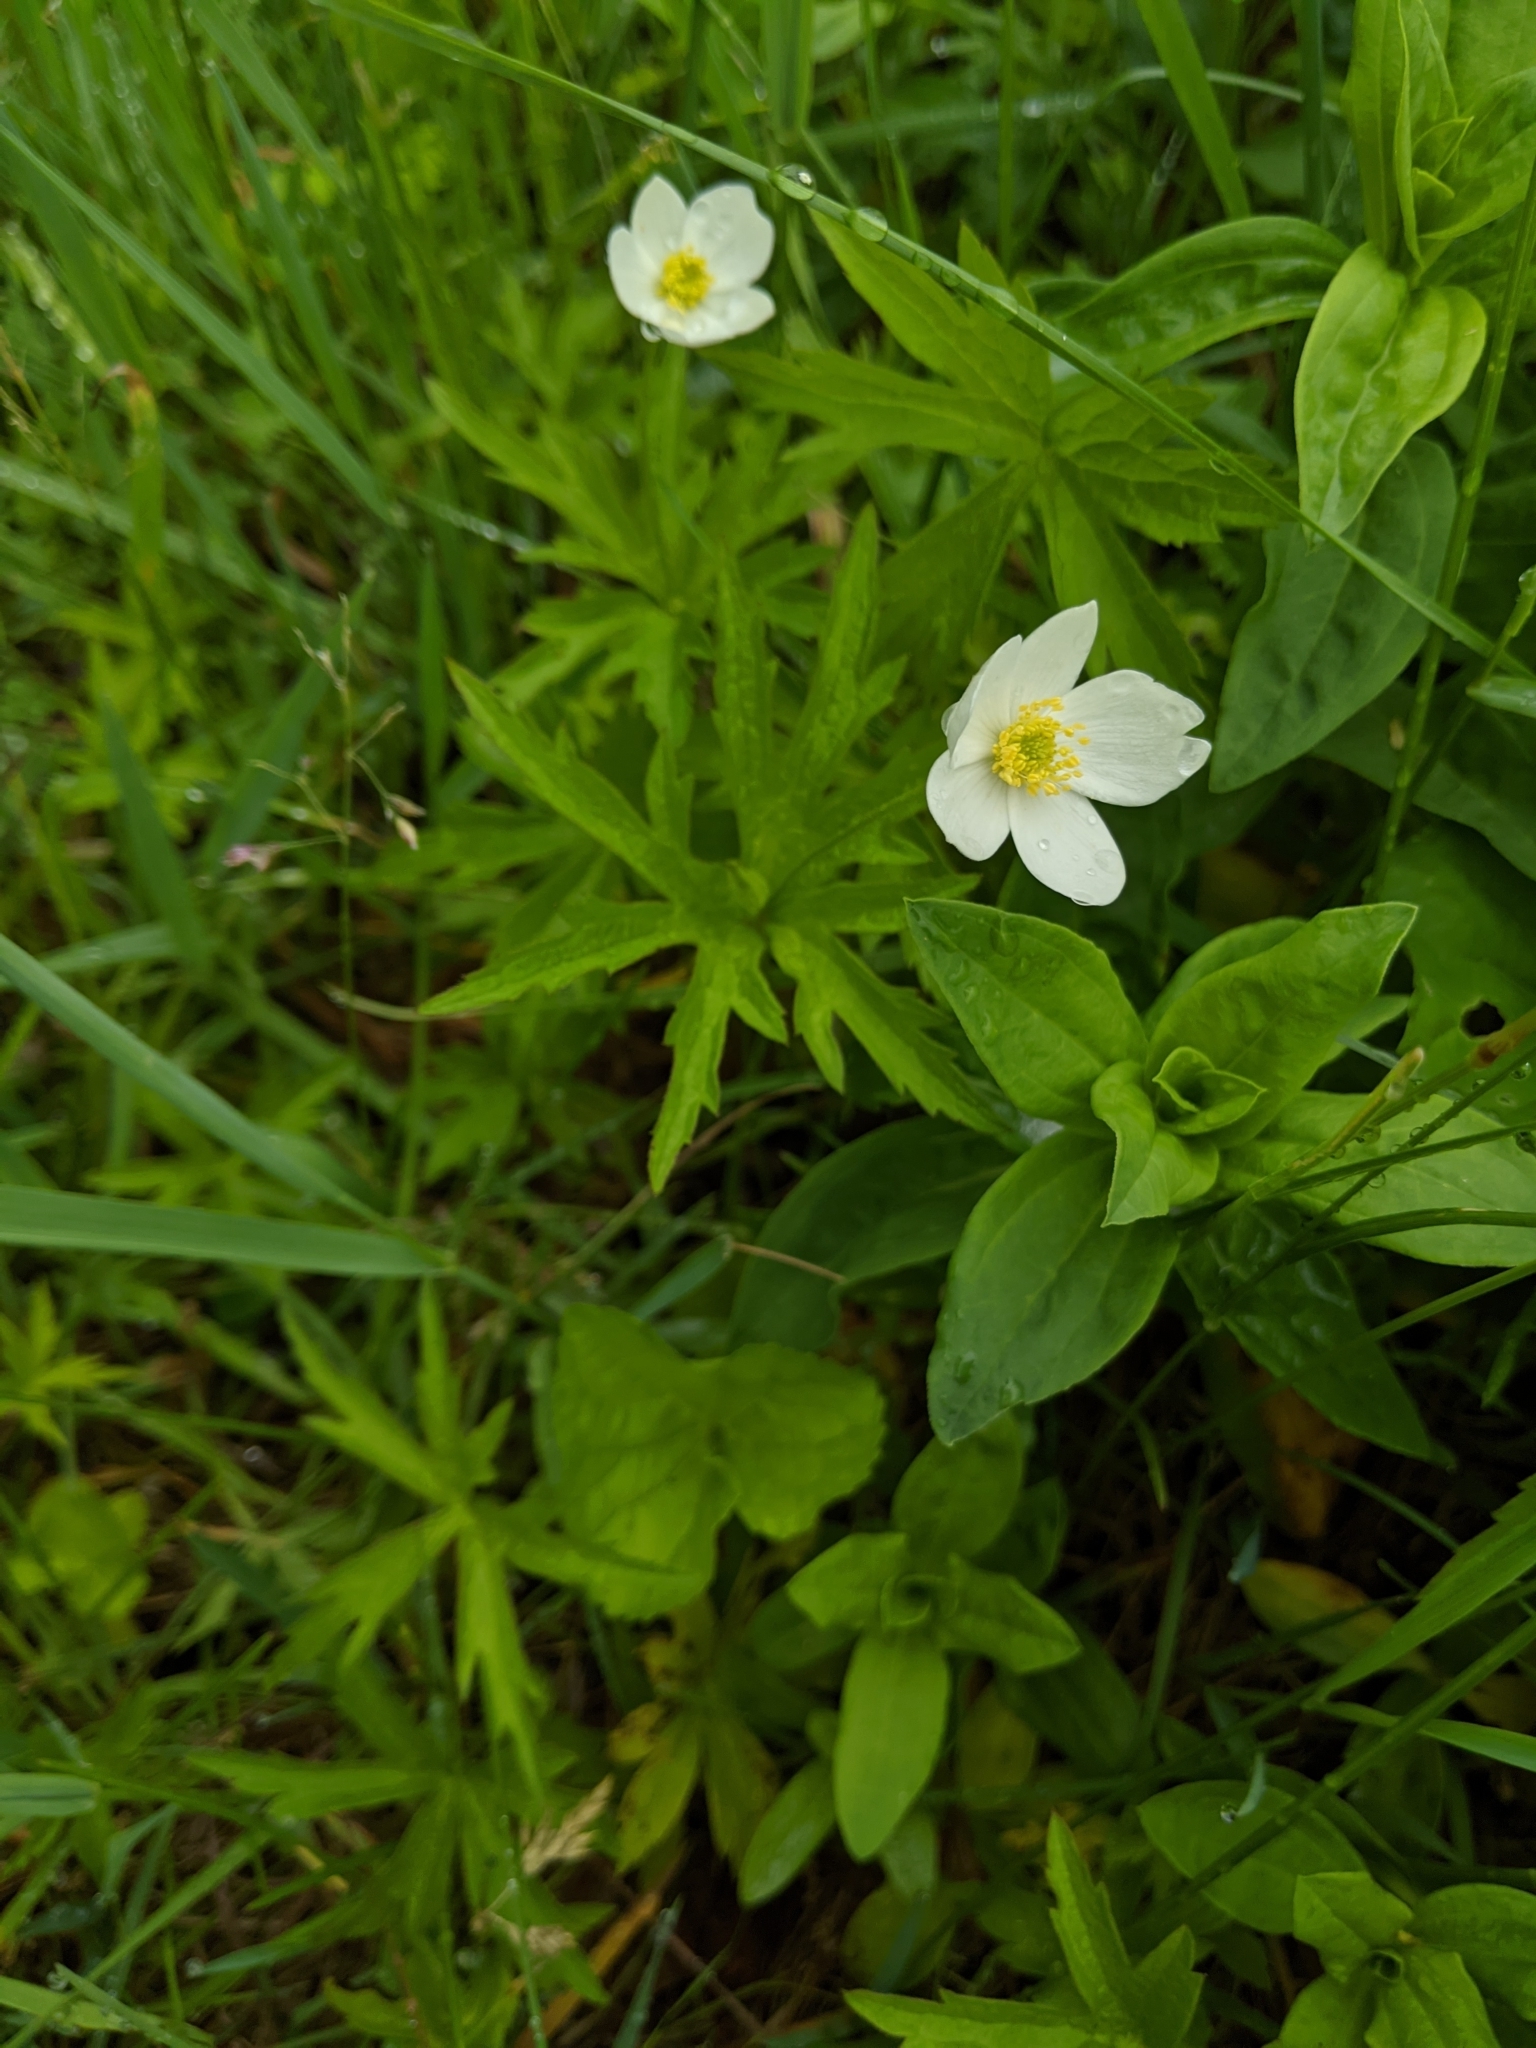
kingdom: Plantae
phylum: Tracheophyta
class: Magnoliopsida
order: Ranunculales
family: Ranunculaceae
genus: Anemonastrum
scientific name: Anemonastrum canadense
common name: Canada anemone
